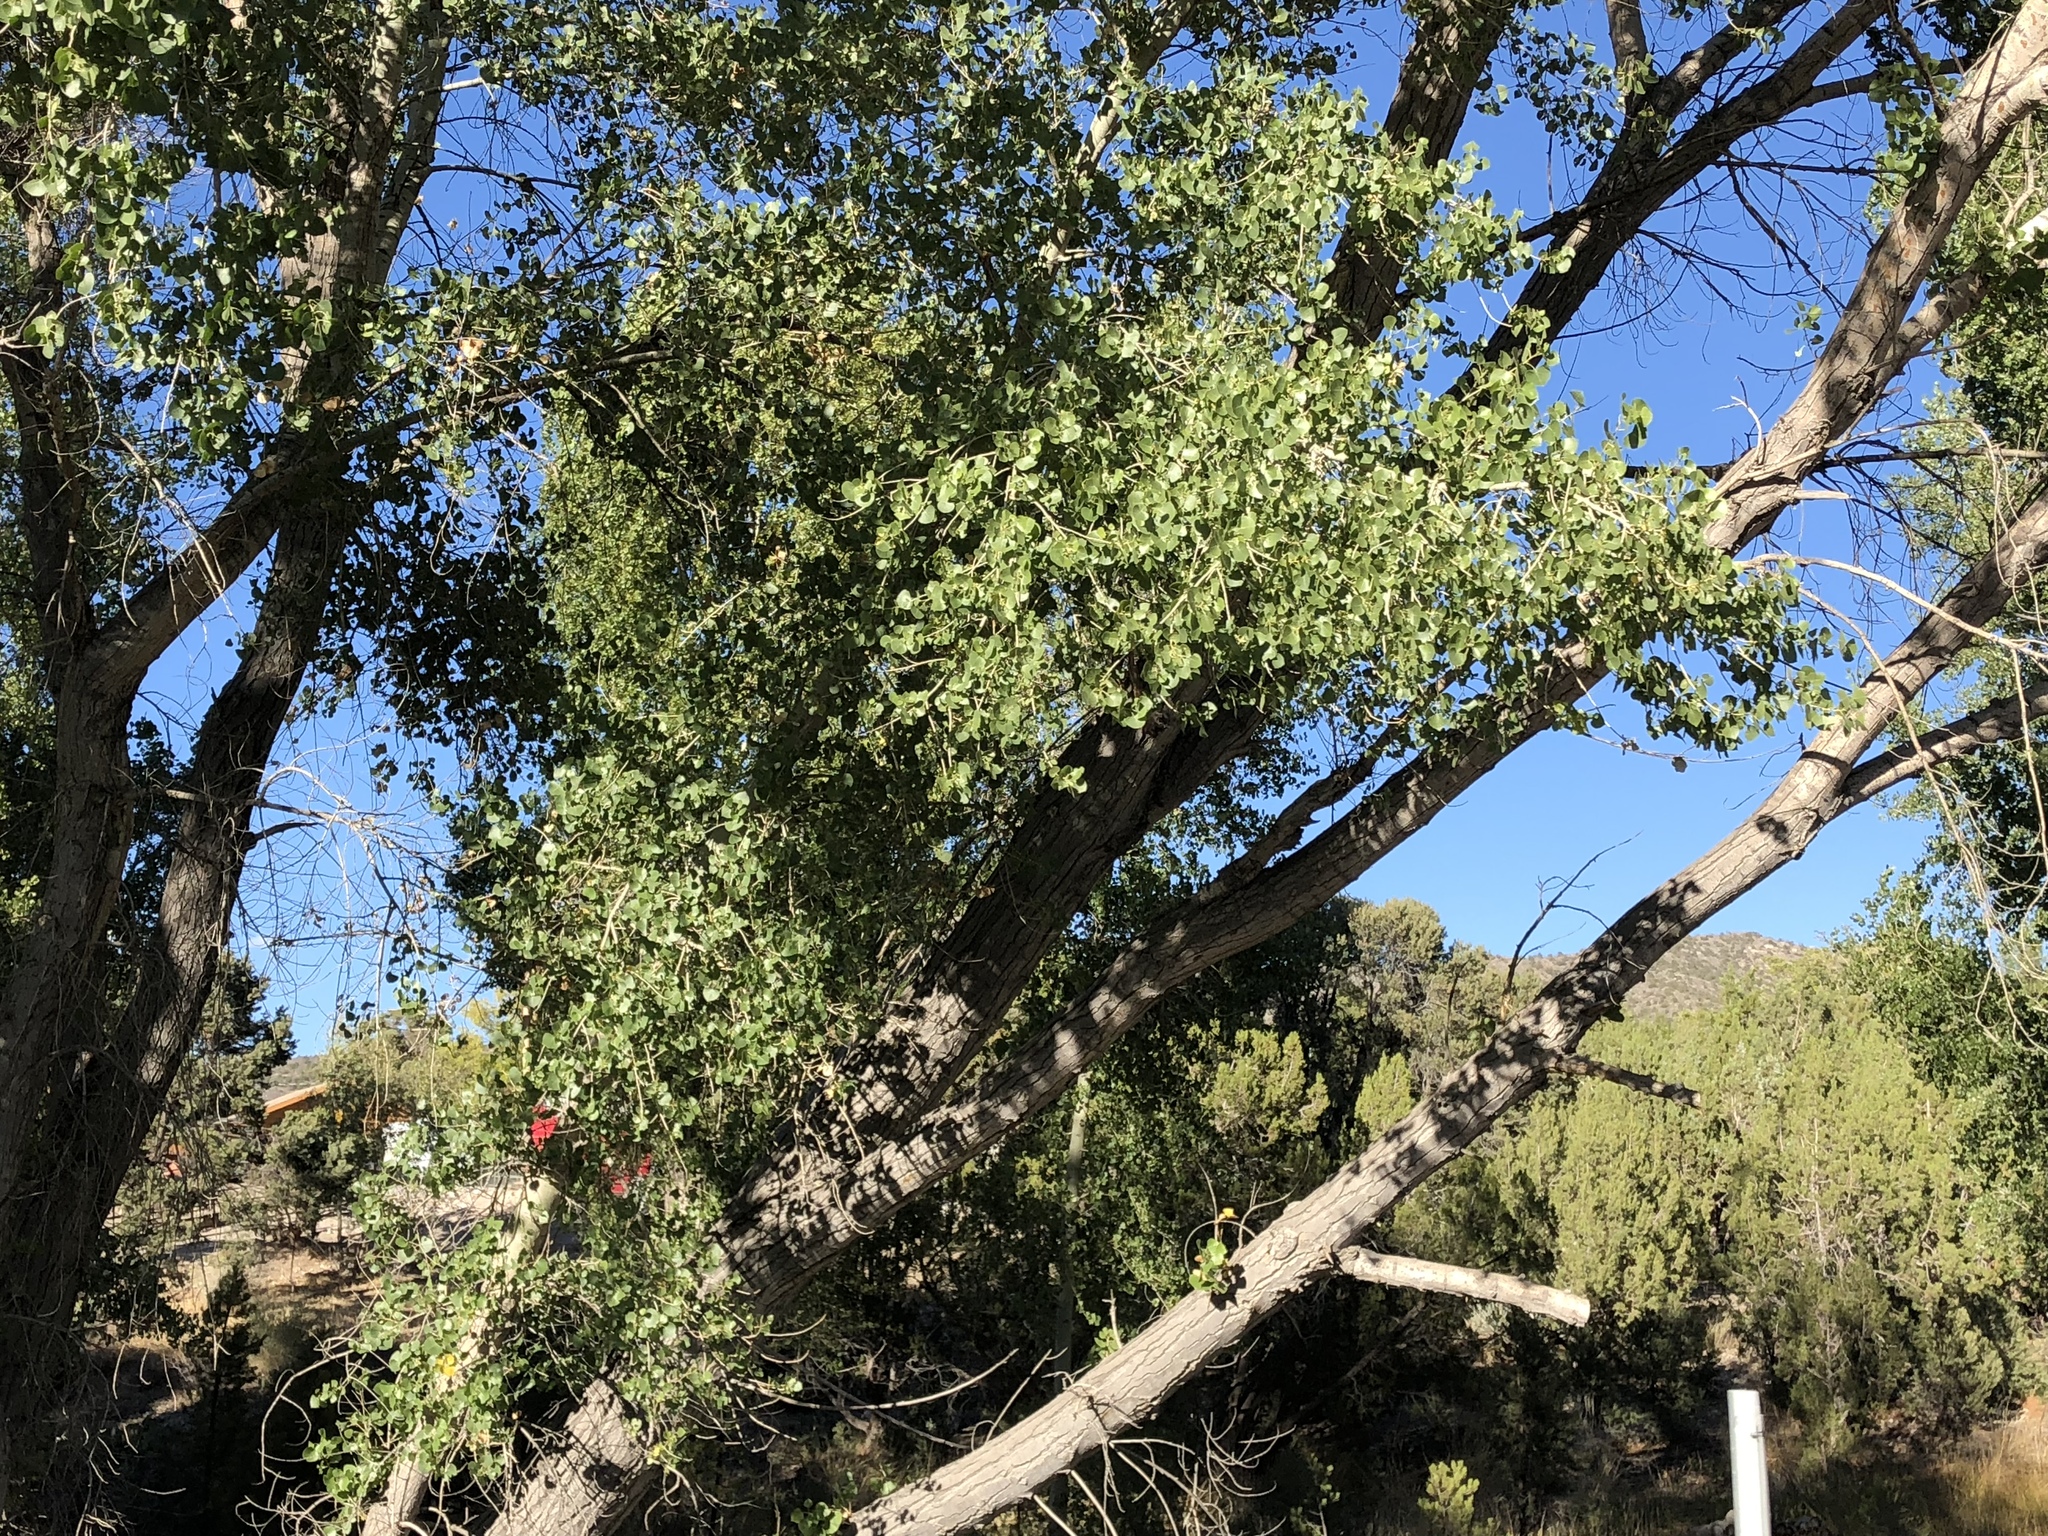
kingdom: Plantae
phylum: Tracheophyta
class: Magnoliopsida
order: Malpighiales
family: Salicaceae
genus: Populus
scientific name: Populus fremontii
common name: Fremont's cottonwood
